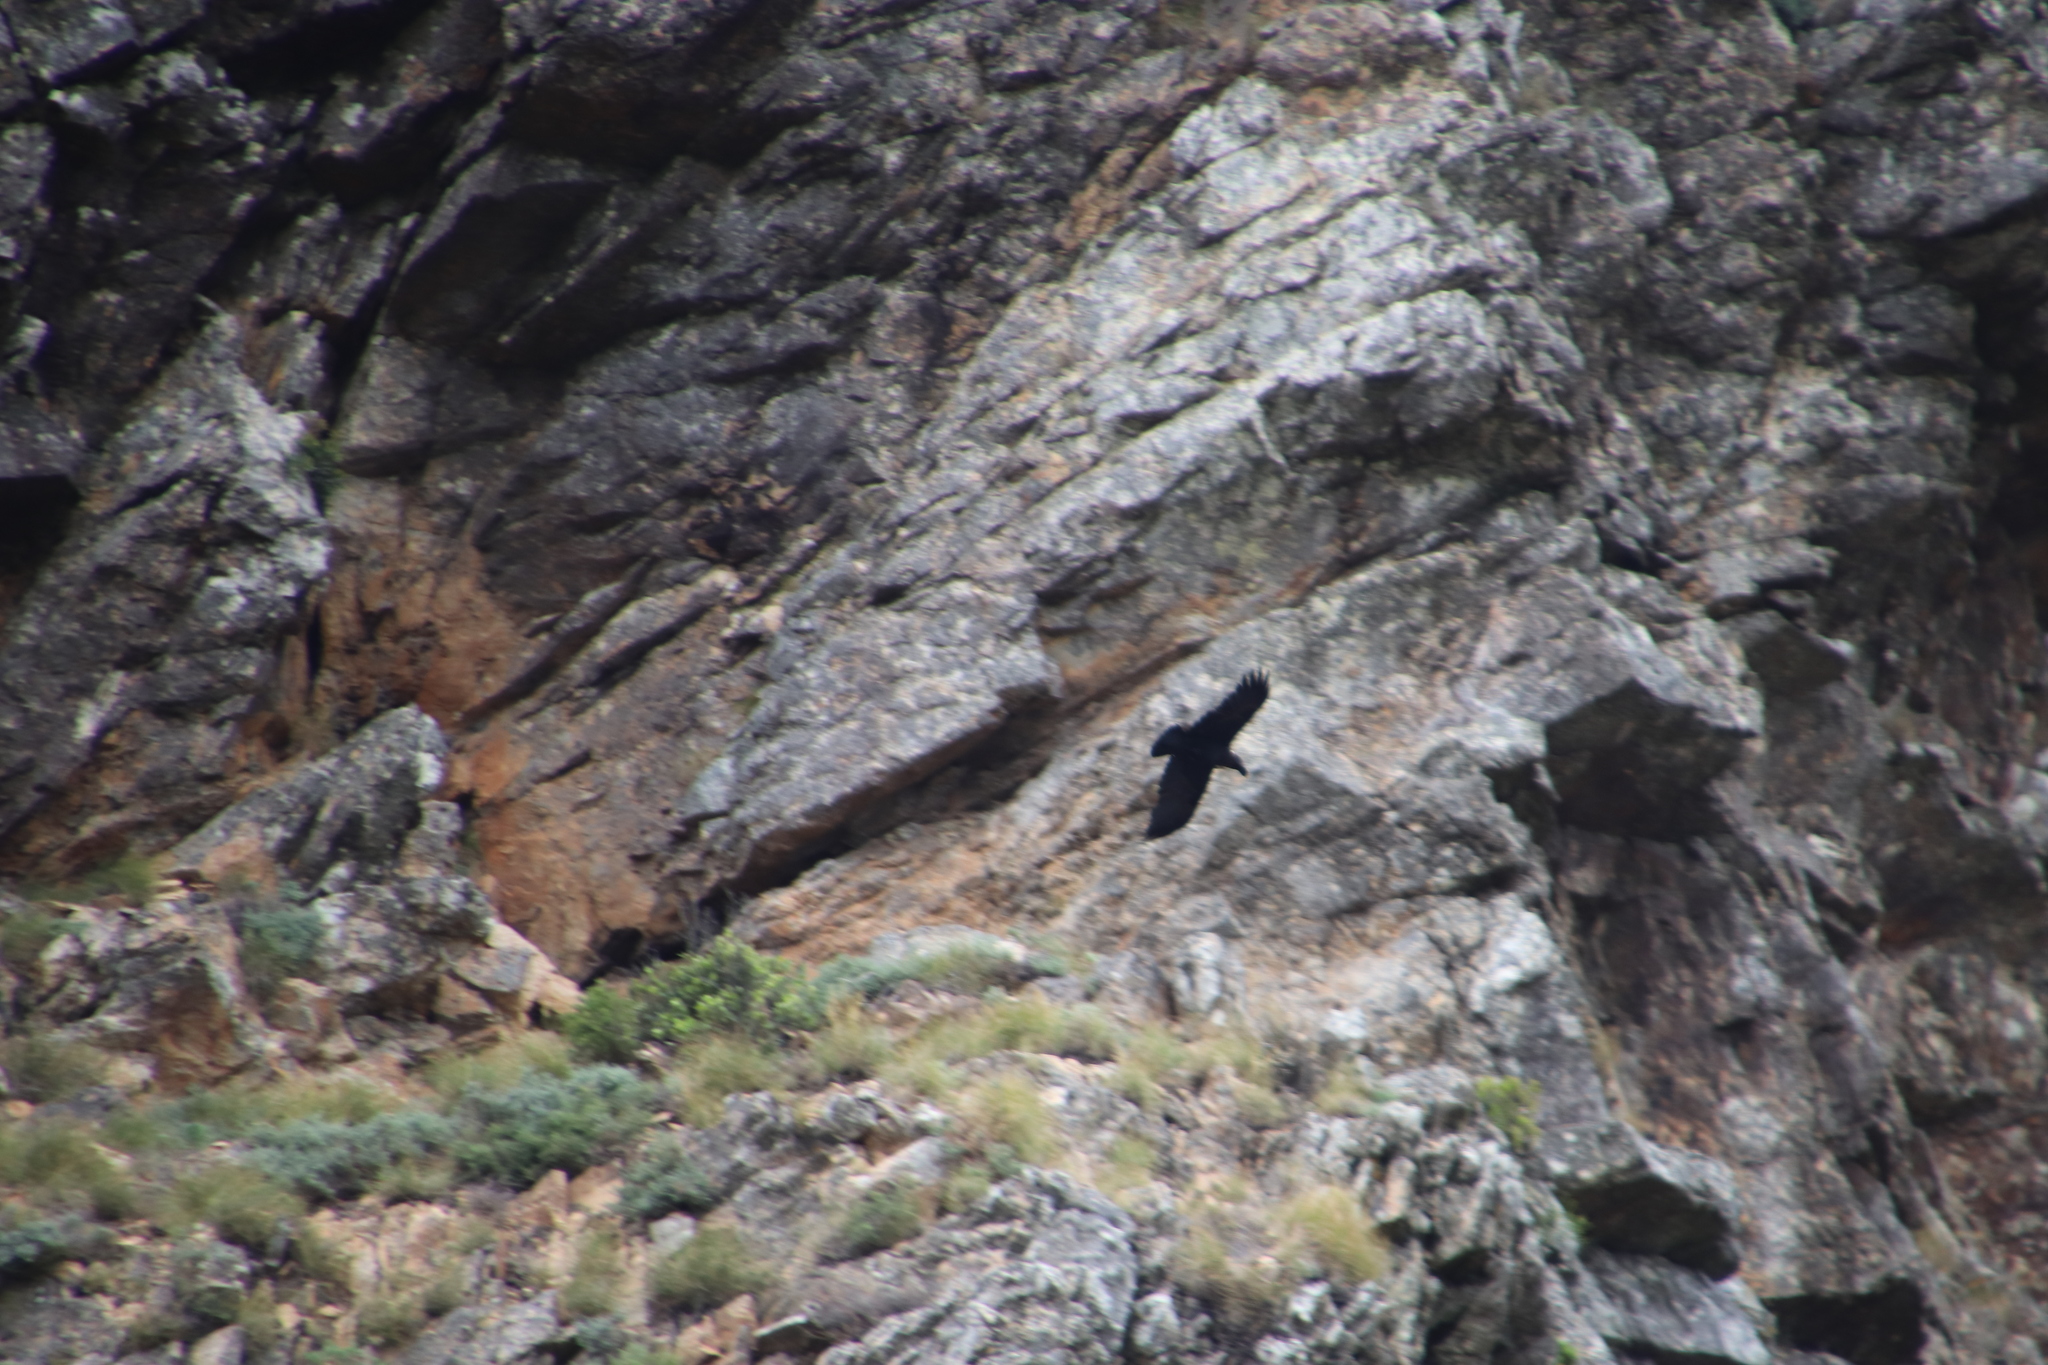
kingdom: Animalia
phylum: Chordata
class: Aves
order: Passeriformes
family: Corvidae
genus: Corvus
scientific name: Corvus albicollis
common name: White-necked raven
